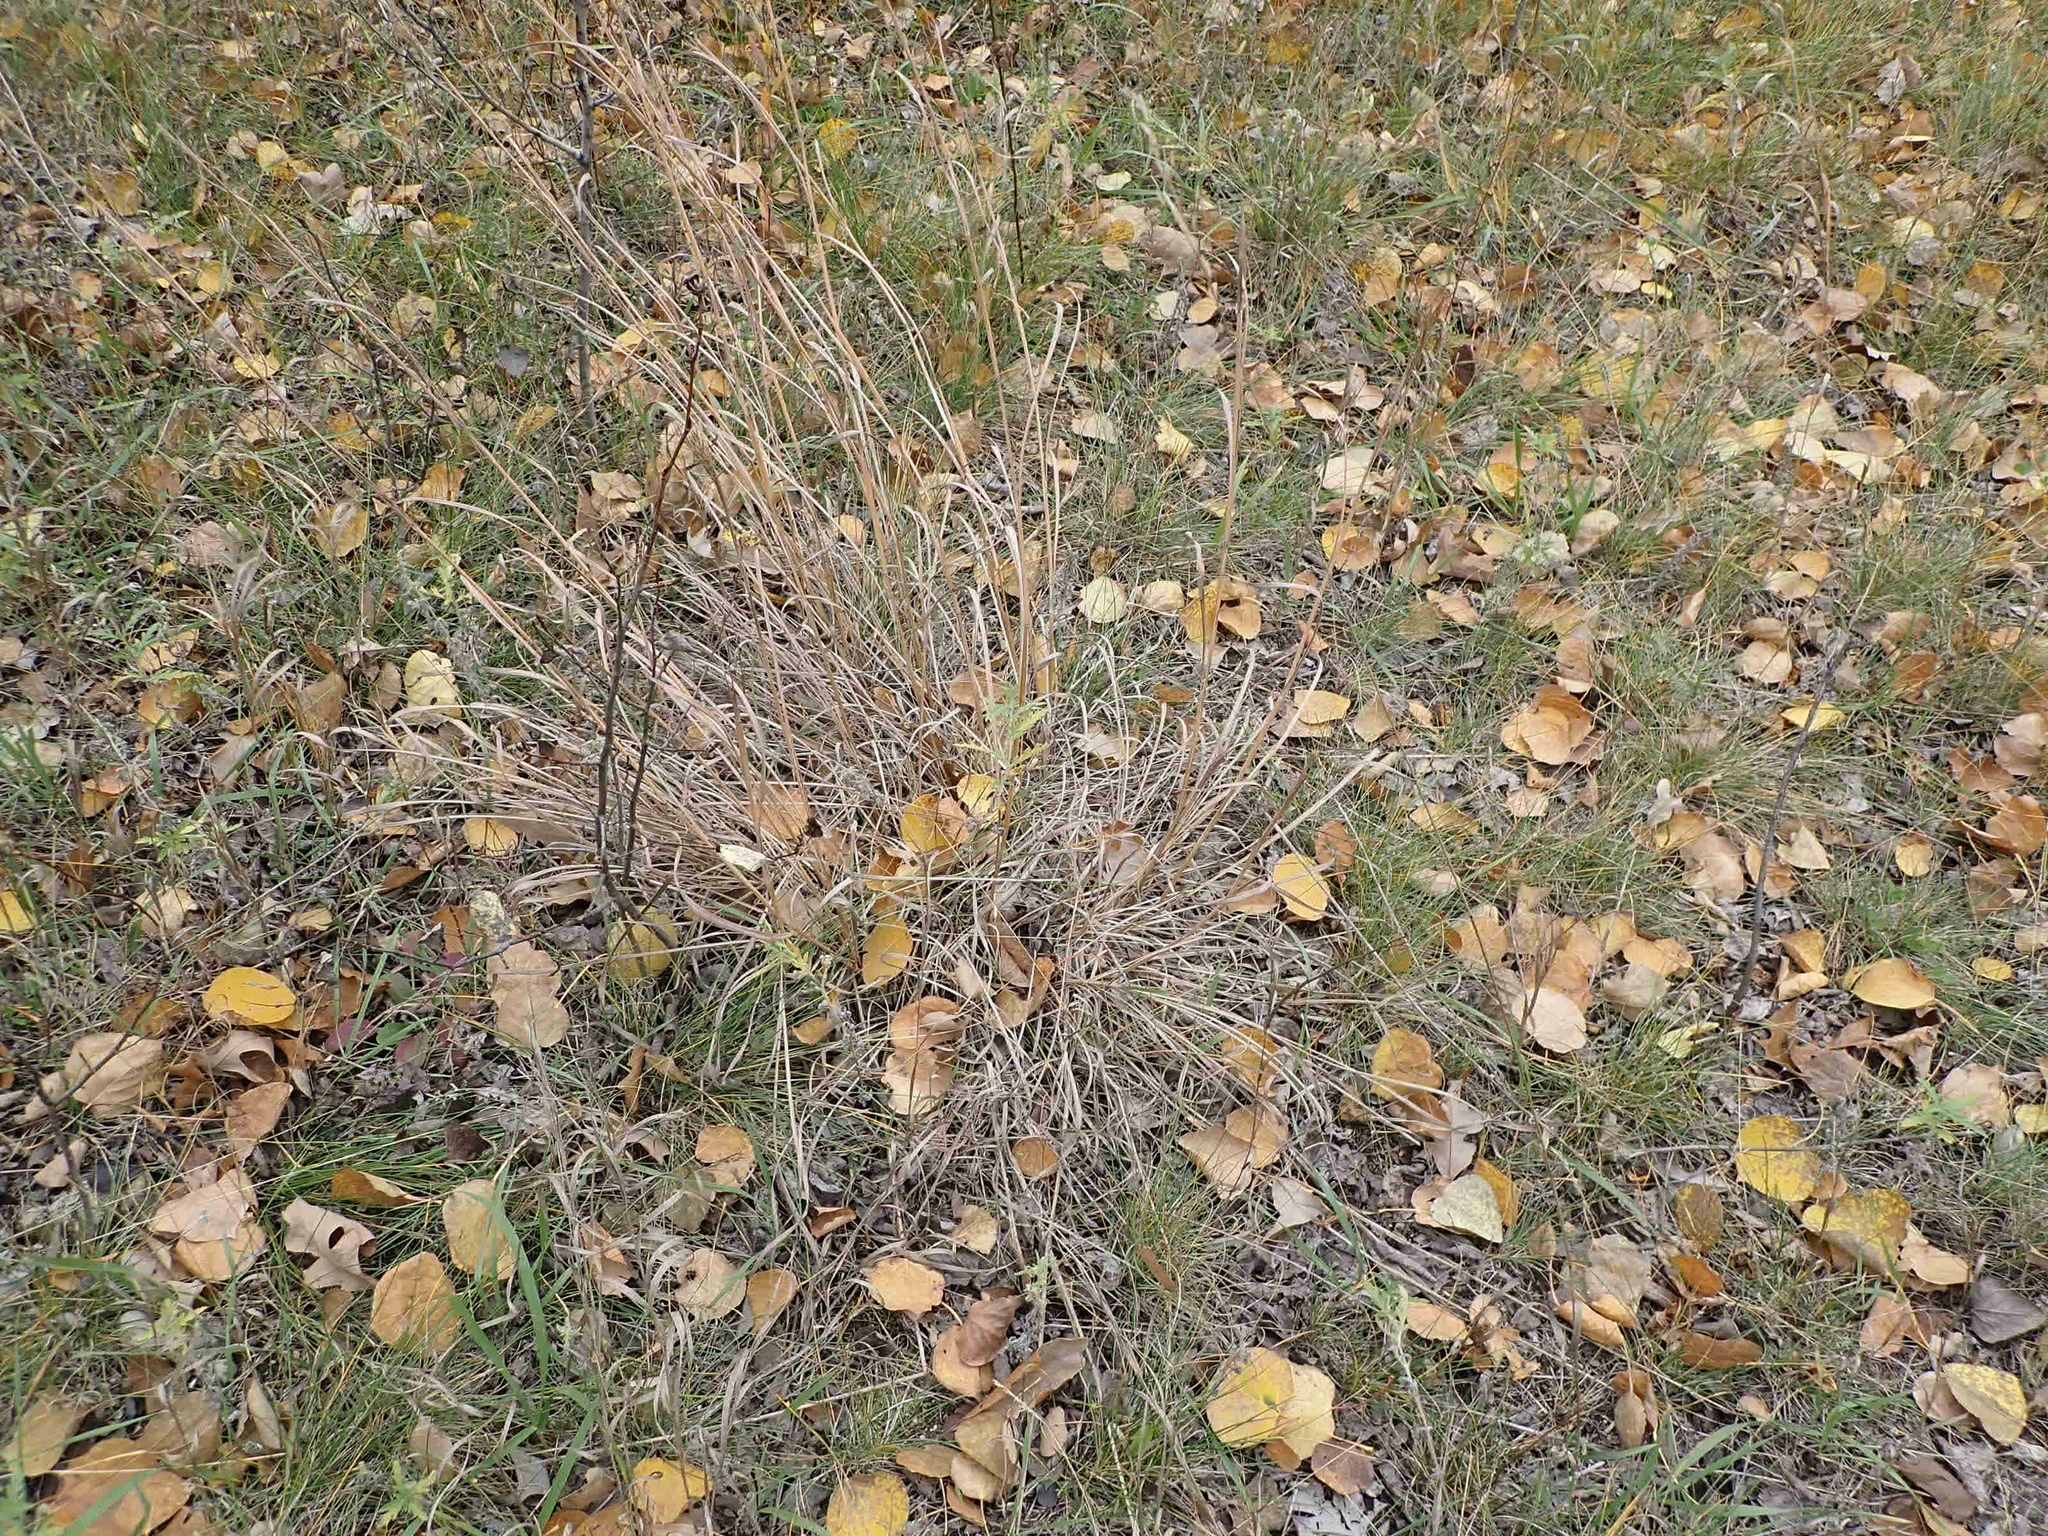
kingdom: Plantae
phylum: Tracheophyta
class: Liliopsida
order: Poales
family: Poaceae
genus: Andropogon
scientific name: Andropogon gerardi
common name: Big bluestem
